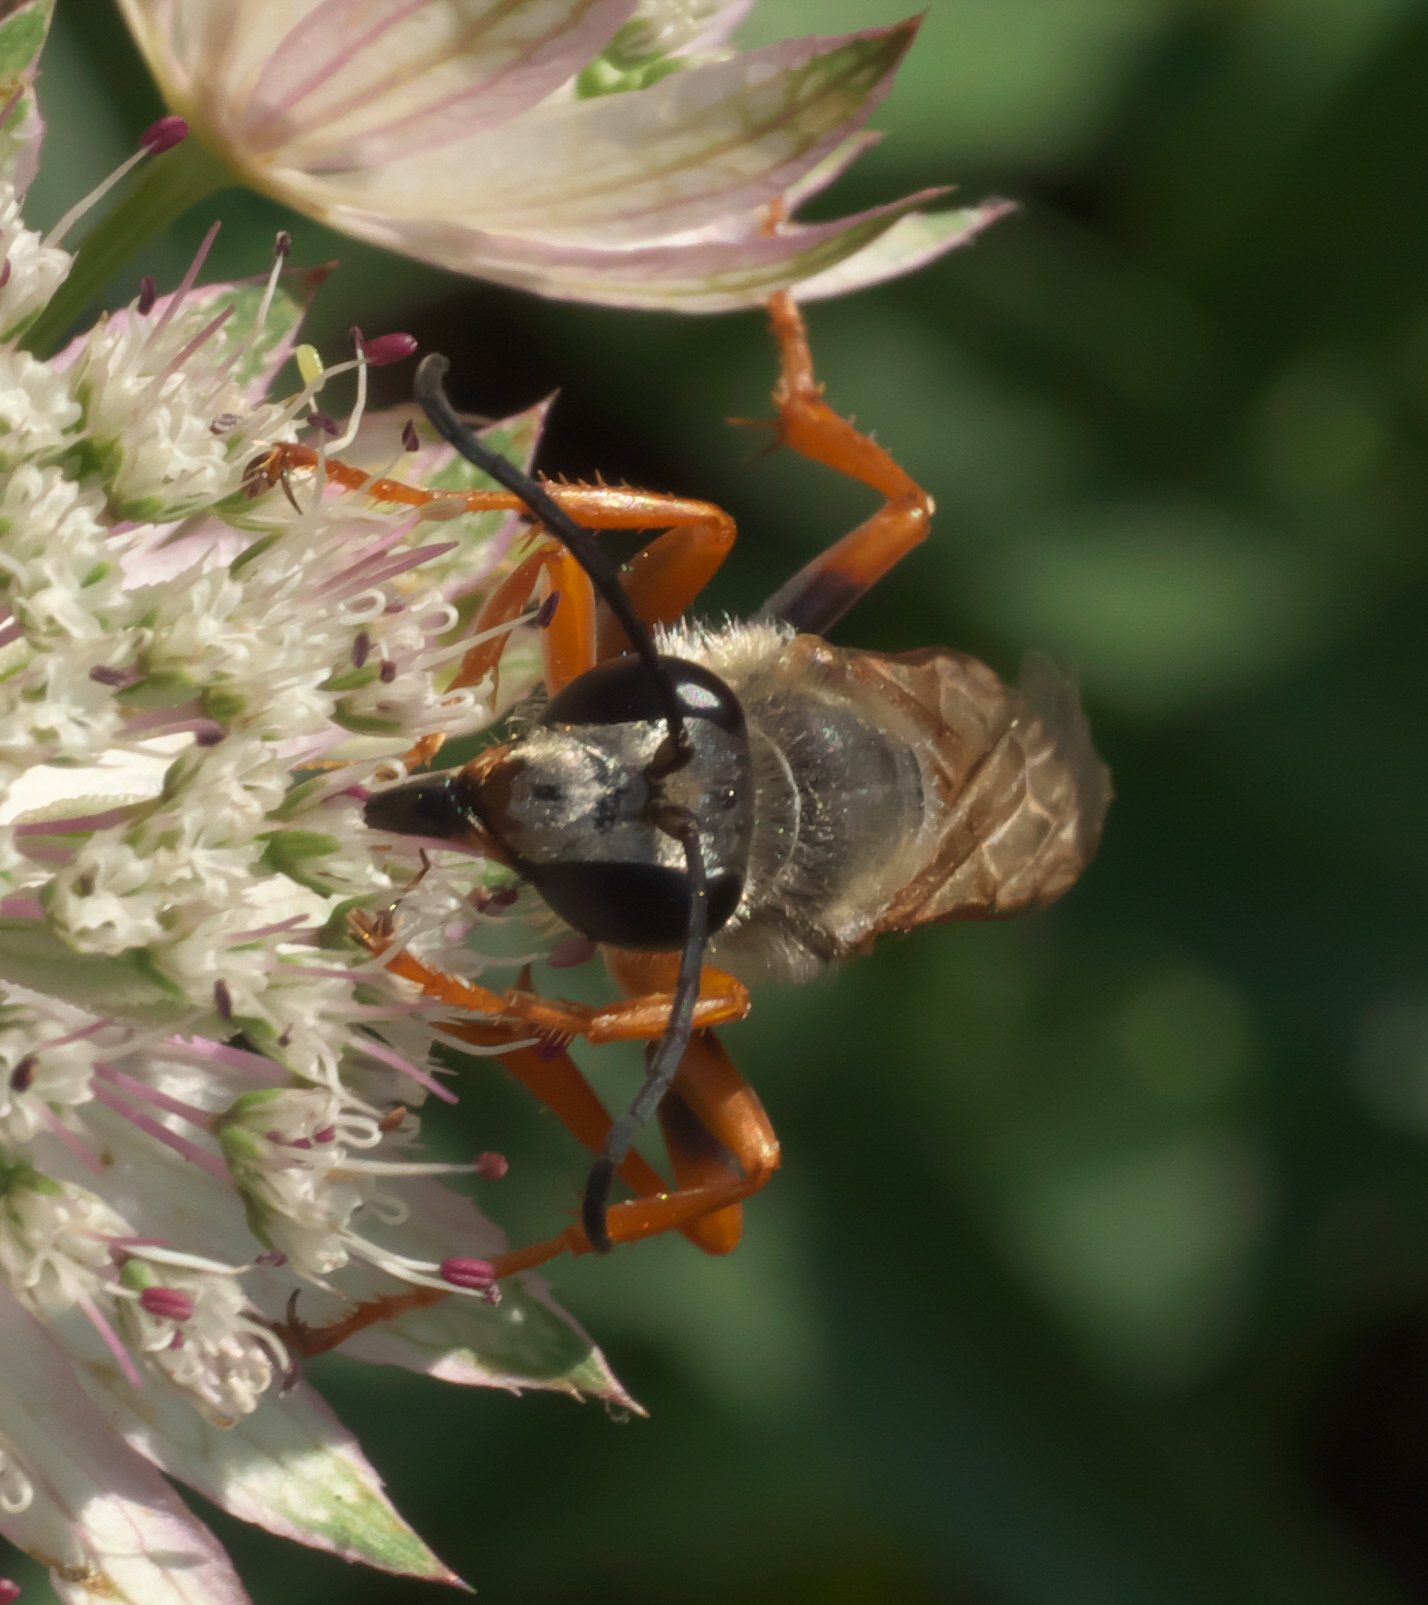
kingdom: Animalia
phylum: Arthropoda
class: Insecta
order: Hymenoptera
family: Sphecidae
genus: Sphex
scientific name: Sphex ichneumoneus
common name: Great golden digger wasp
